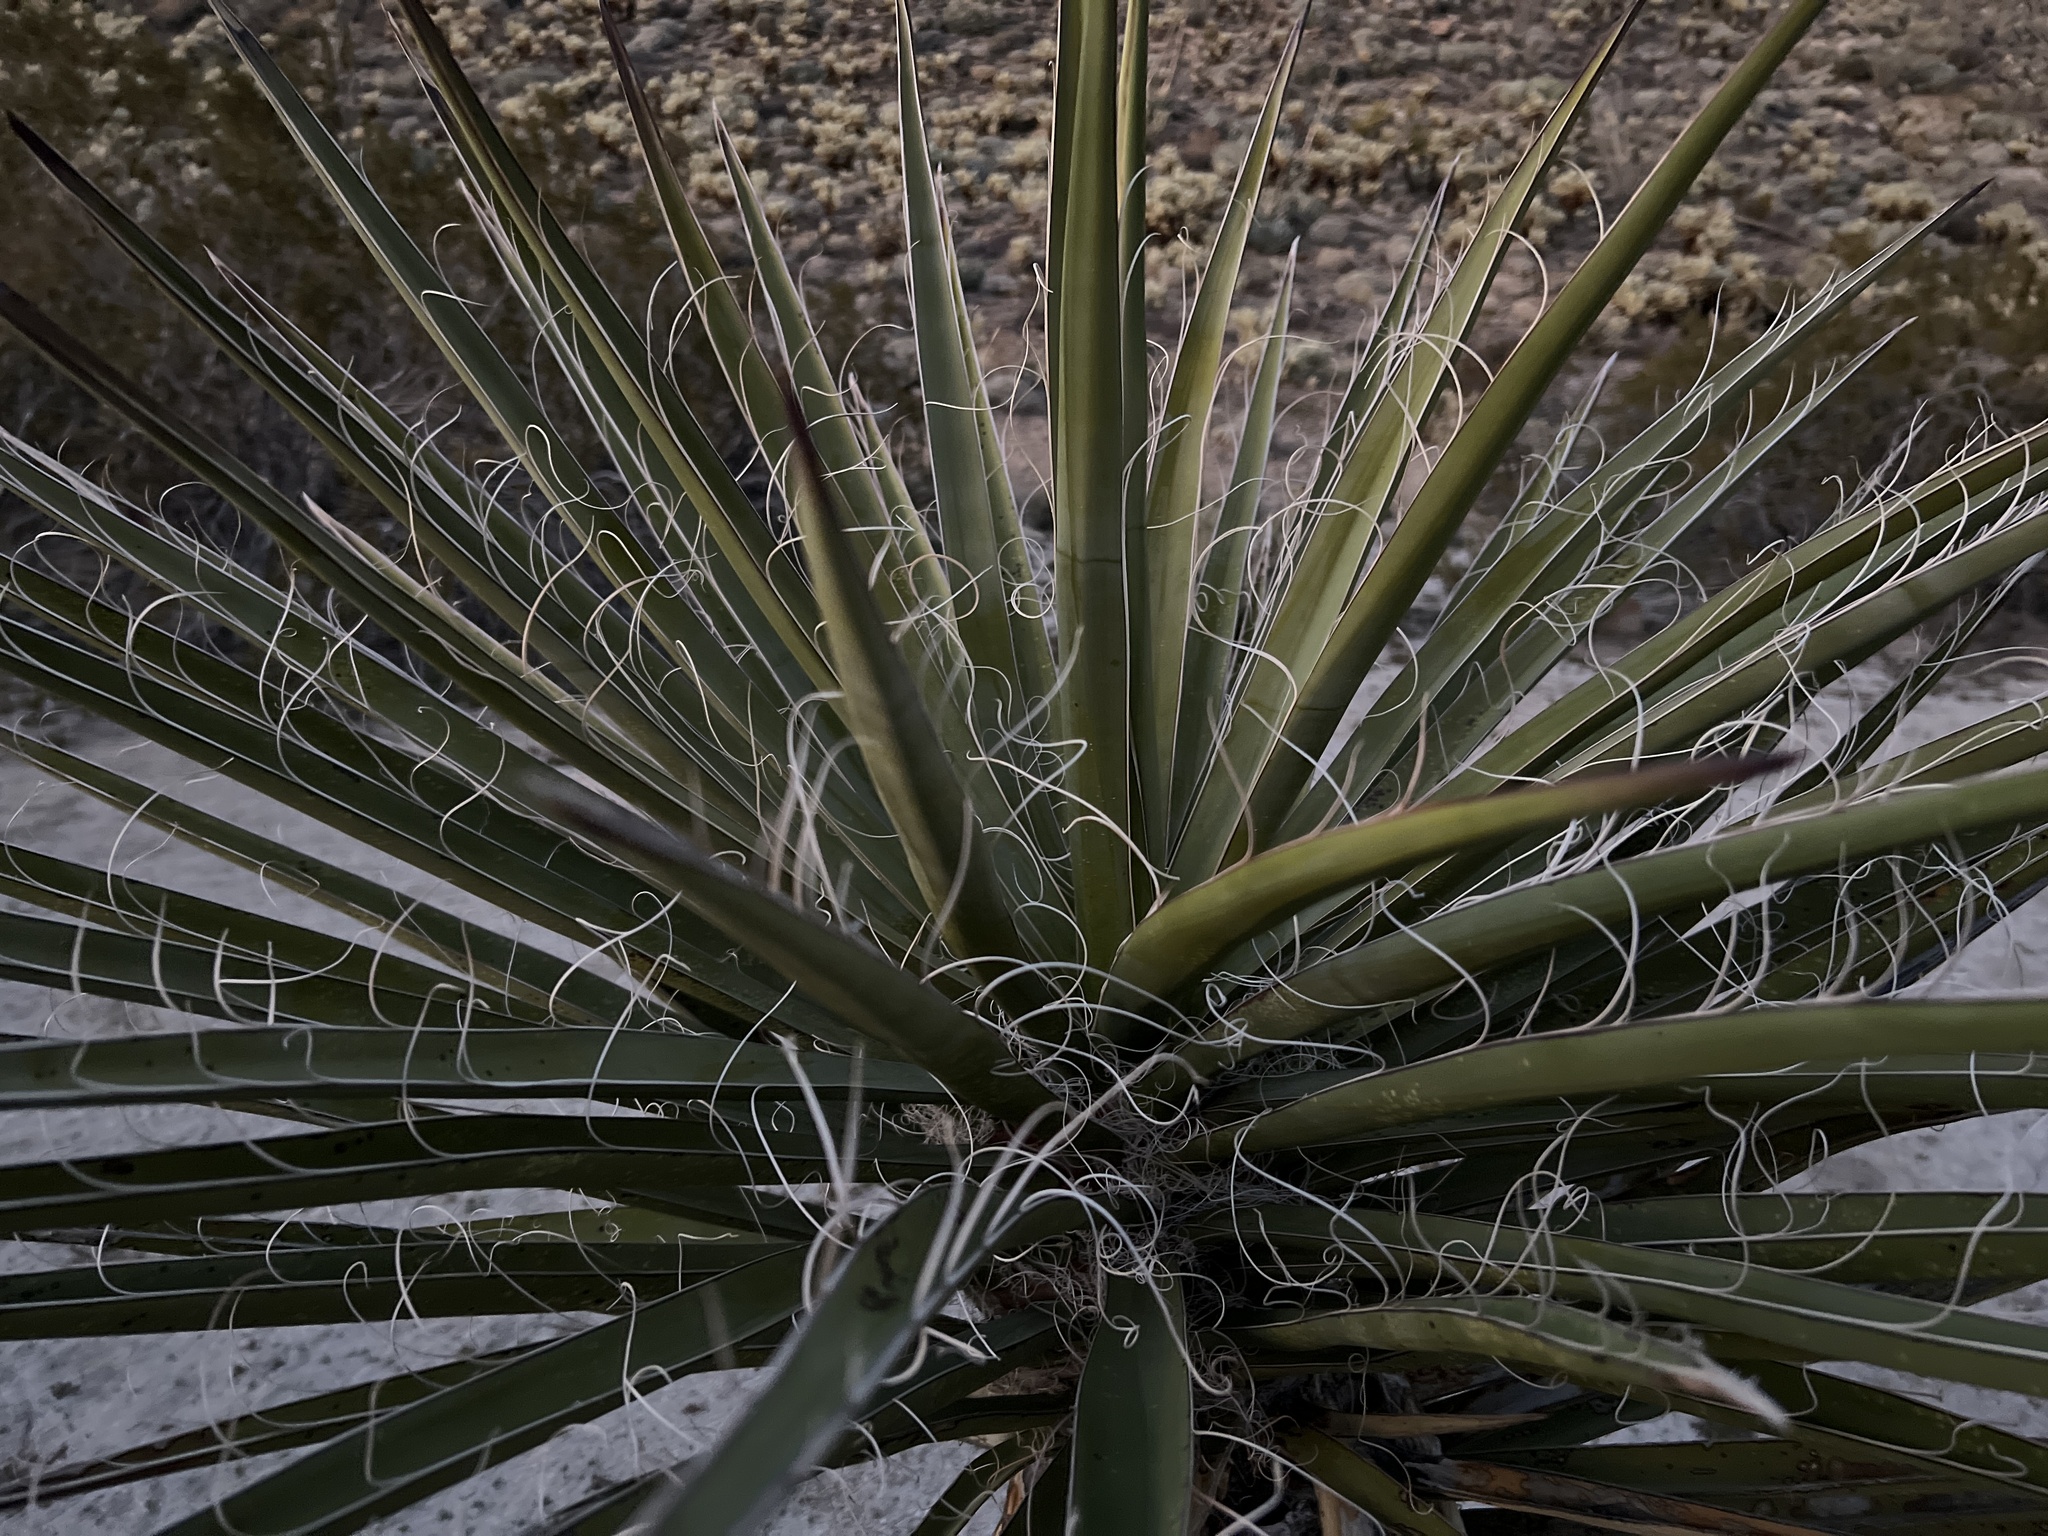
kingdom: Plantae
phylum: Tracheophyta
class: Liliopsida
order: Asparagales
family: Asparagaceae
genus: Yucca
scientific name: Yucca schidigera
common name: Mojave yucca
